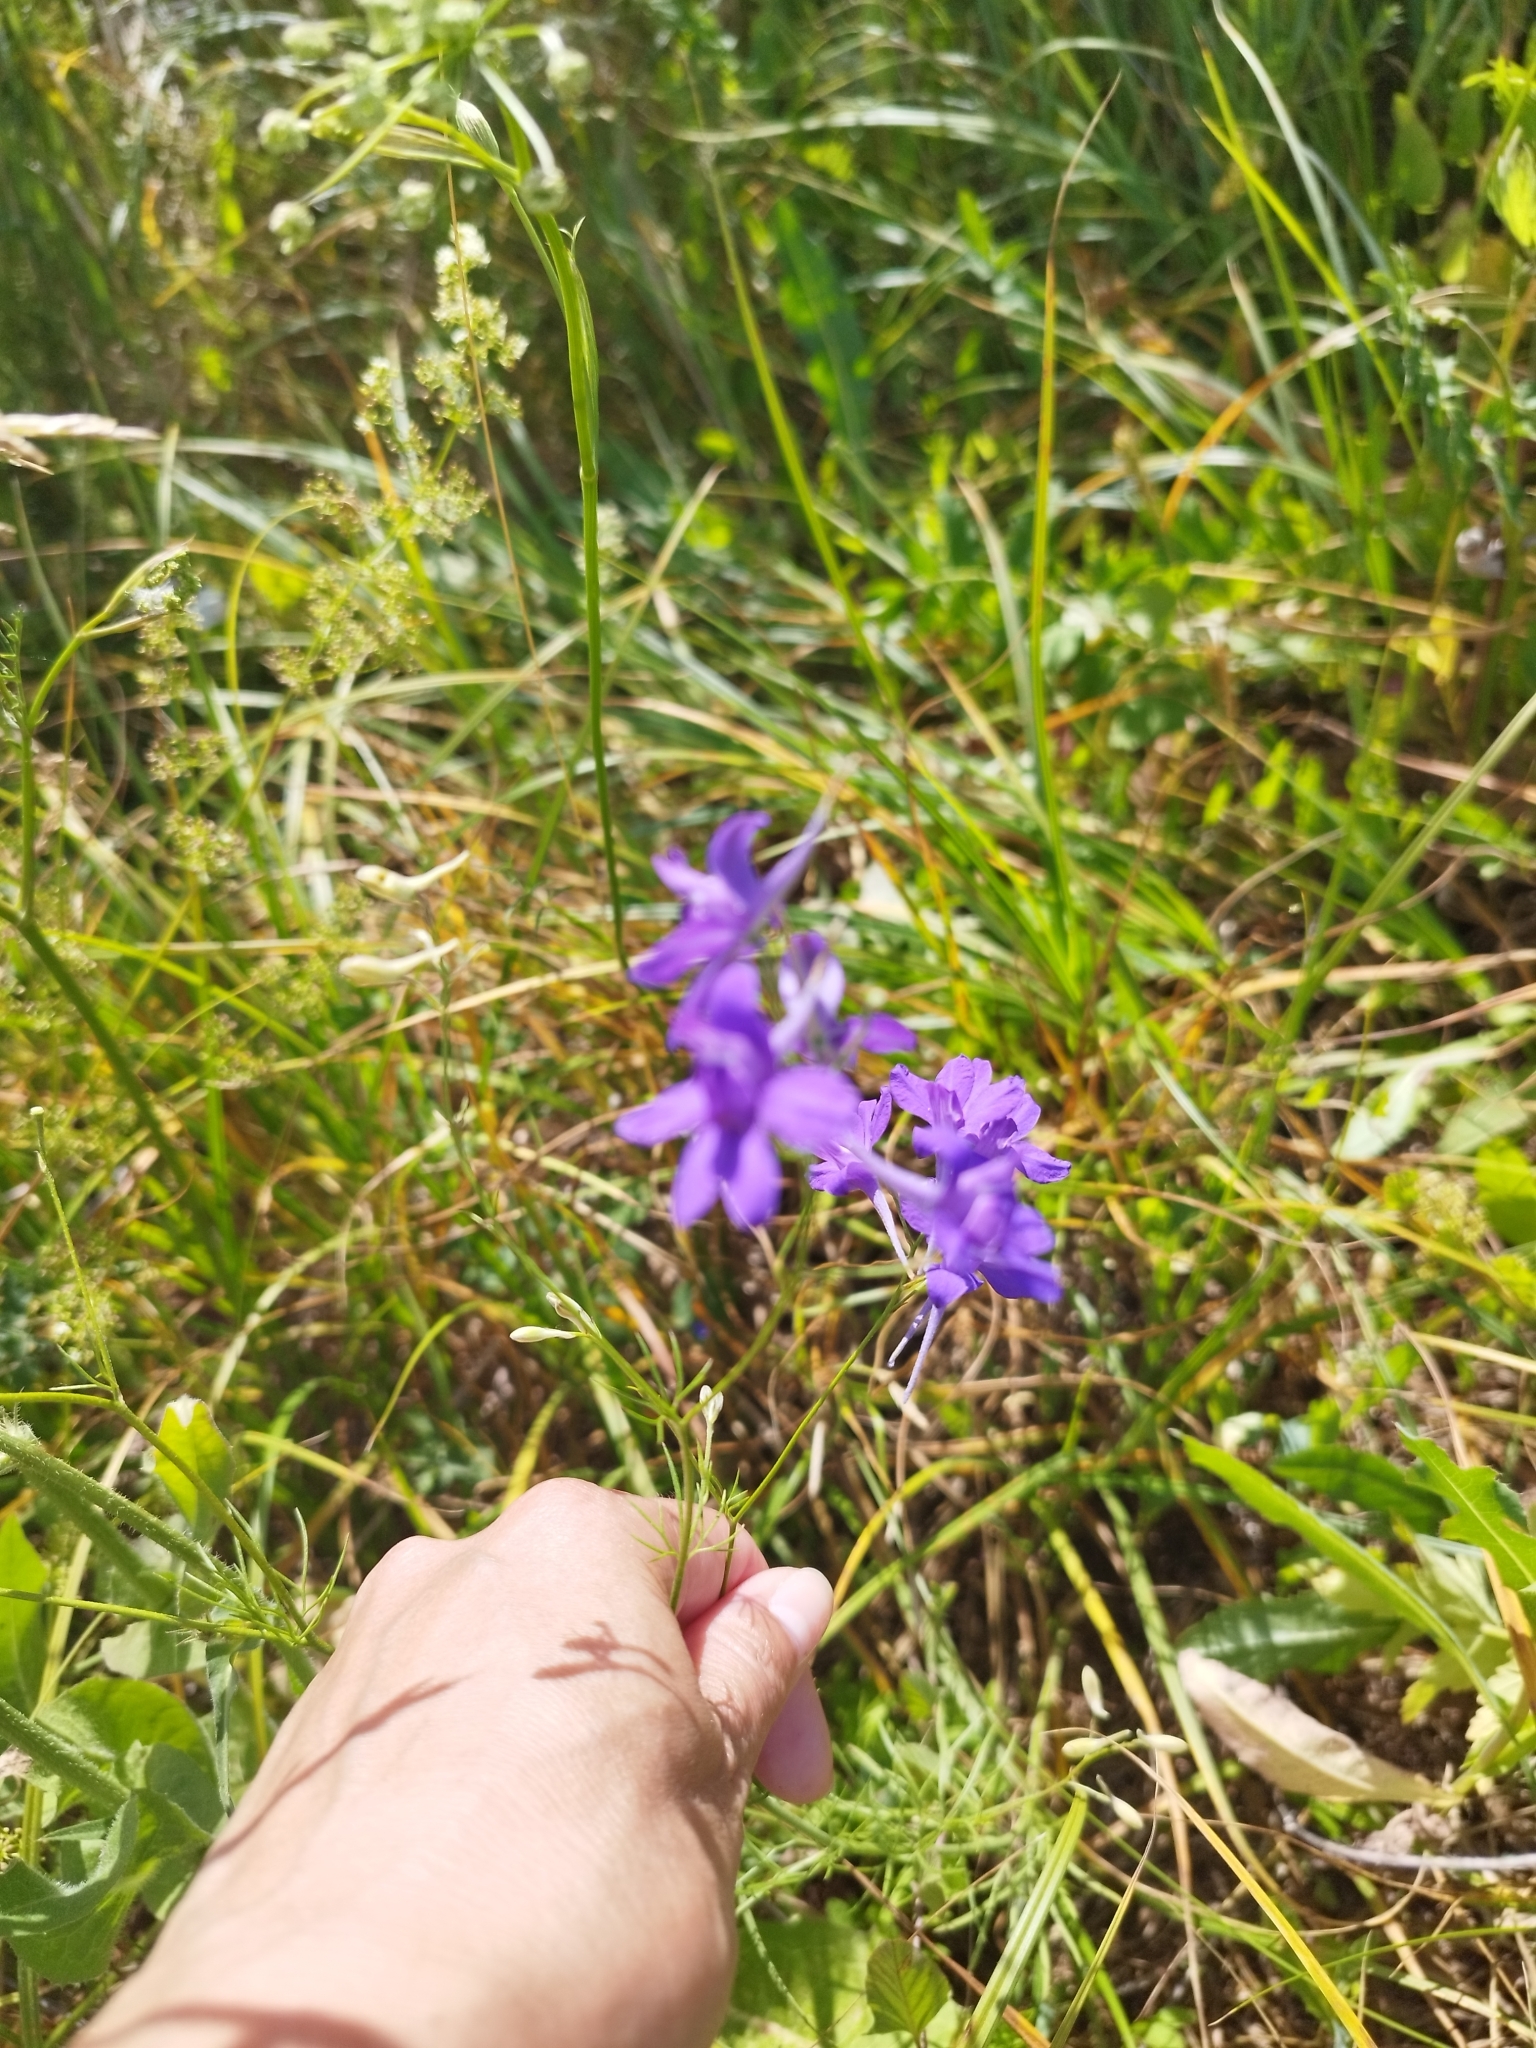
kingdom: Plantae
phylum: Tracheophyta
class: Magnoliopsida
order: Ranunculales
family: Ranunculaceae
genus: Delphinium
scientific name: Delphinium consolida
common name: Branching larkspur
